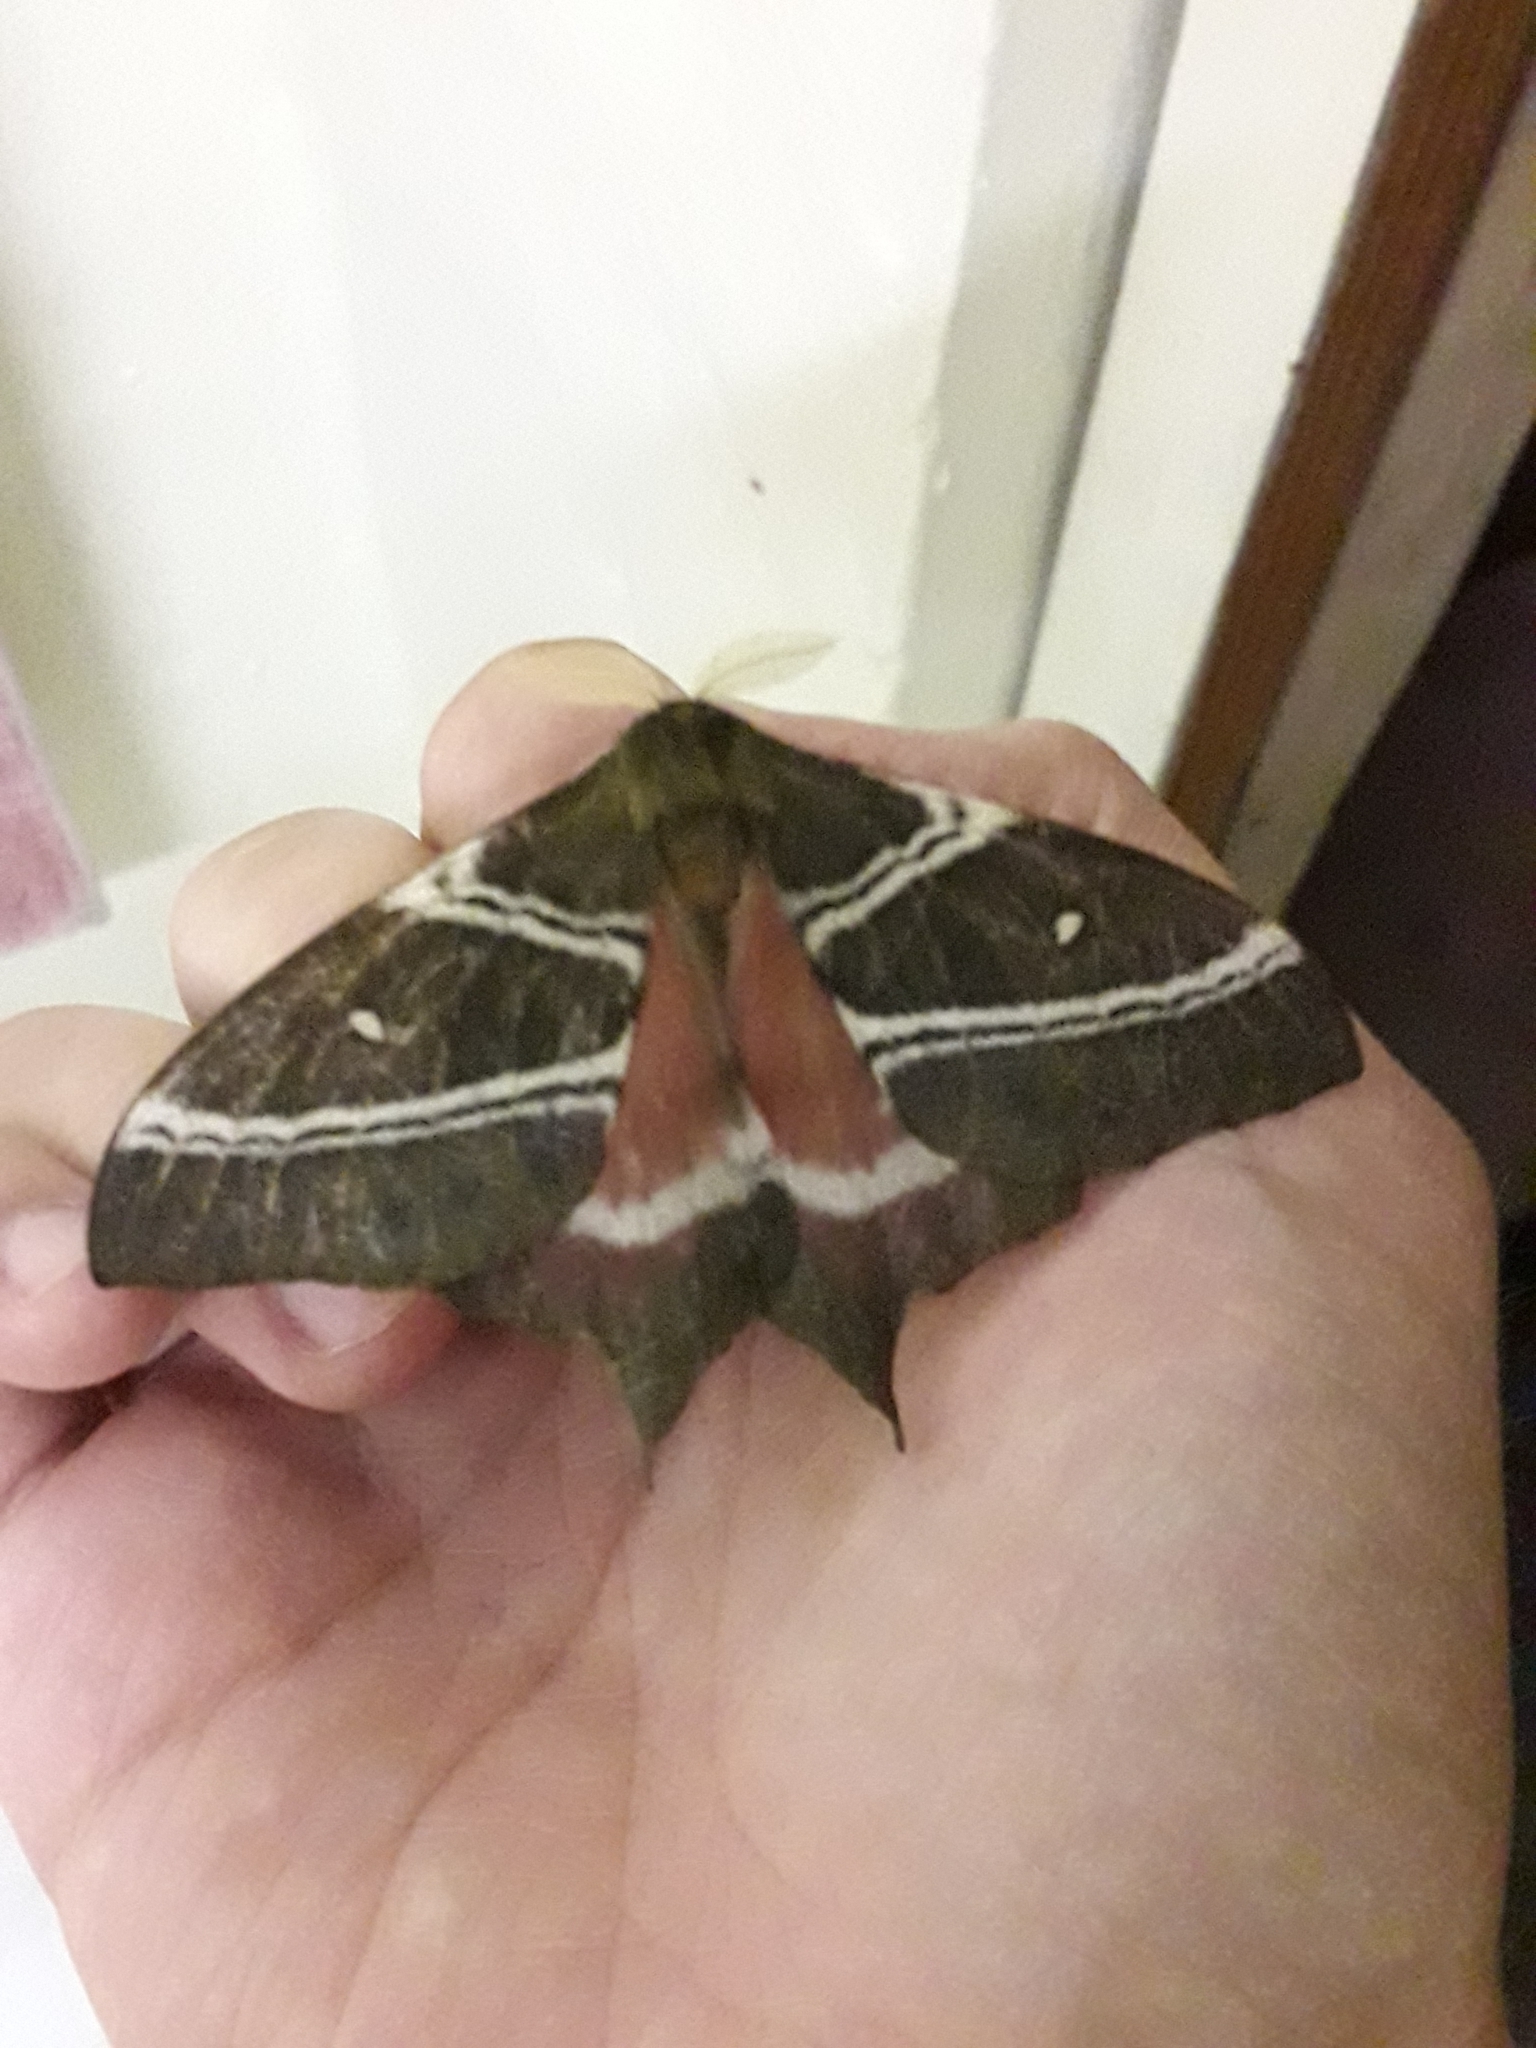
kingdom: Animalia
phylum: Arthropoda
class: Insecta
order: Lepidoptera
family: Saturniidae
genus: Urota
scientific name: Urota sinope
